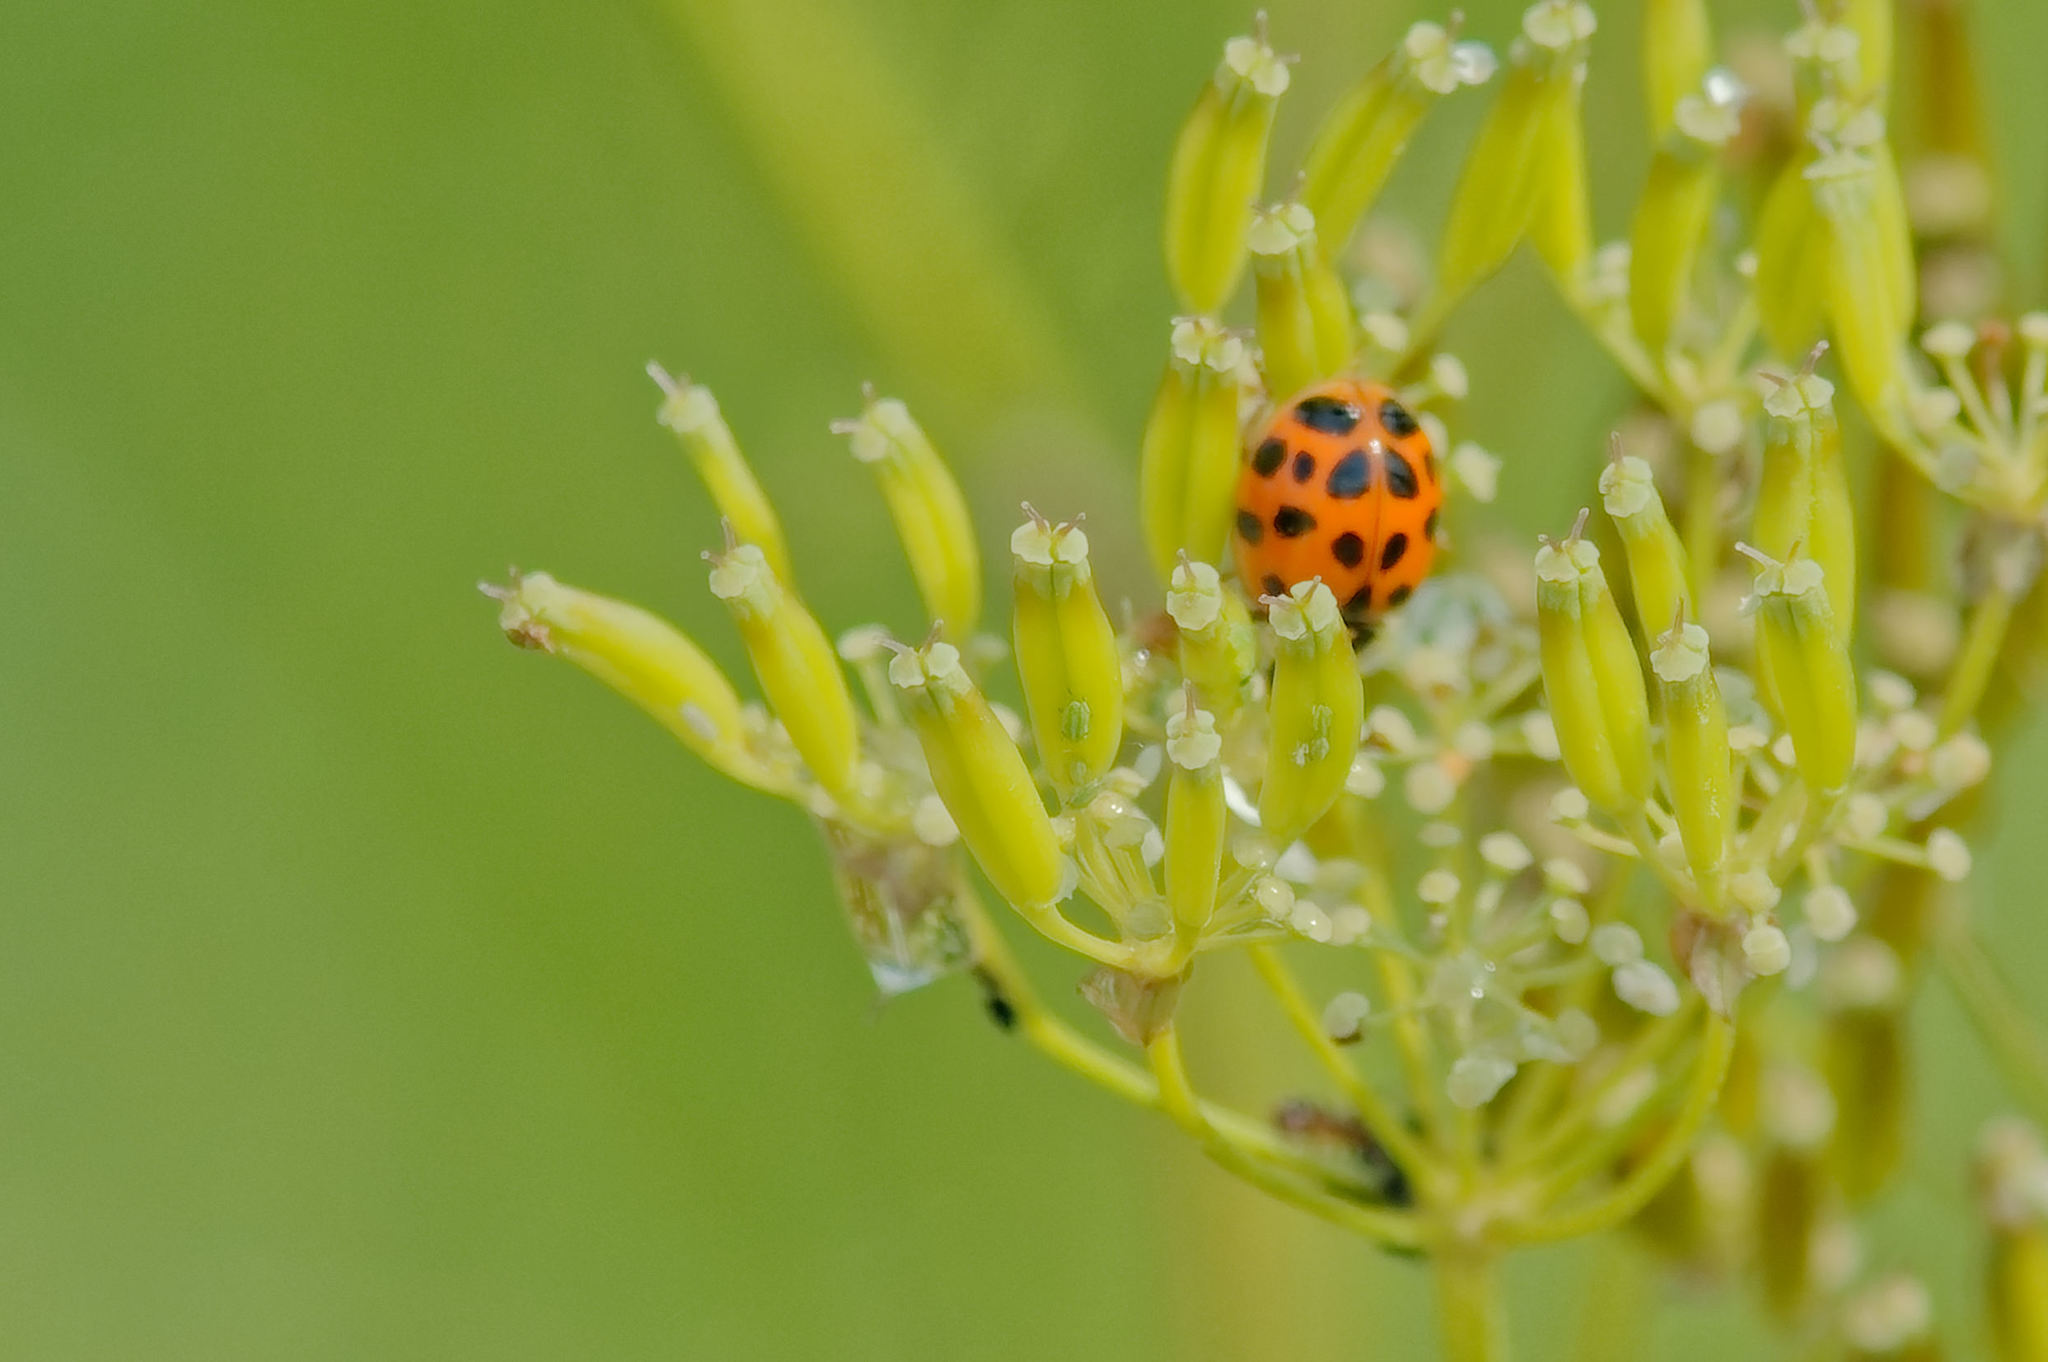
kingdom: Animalia
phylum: Arthropoda
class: Insecta
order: Coleoptera
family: Coccinellidae
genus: Harmonia
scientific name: Harmonia axyridis
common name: Harlequin ladybird
